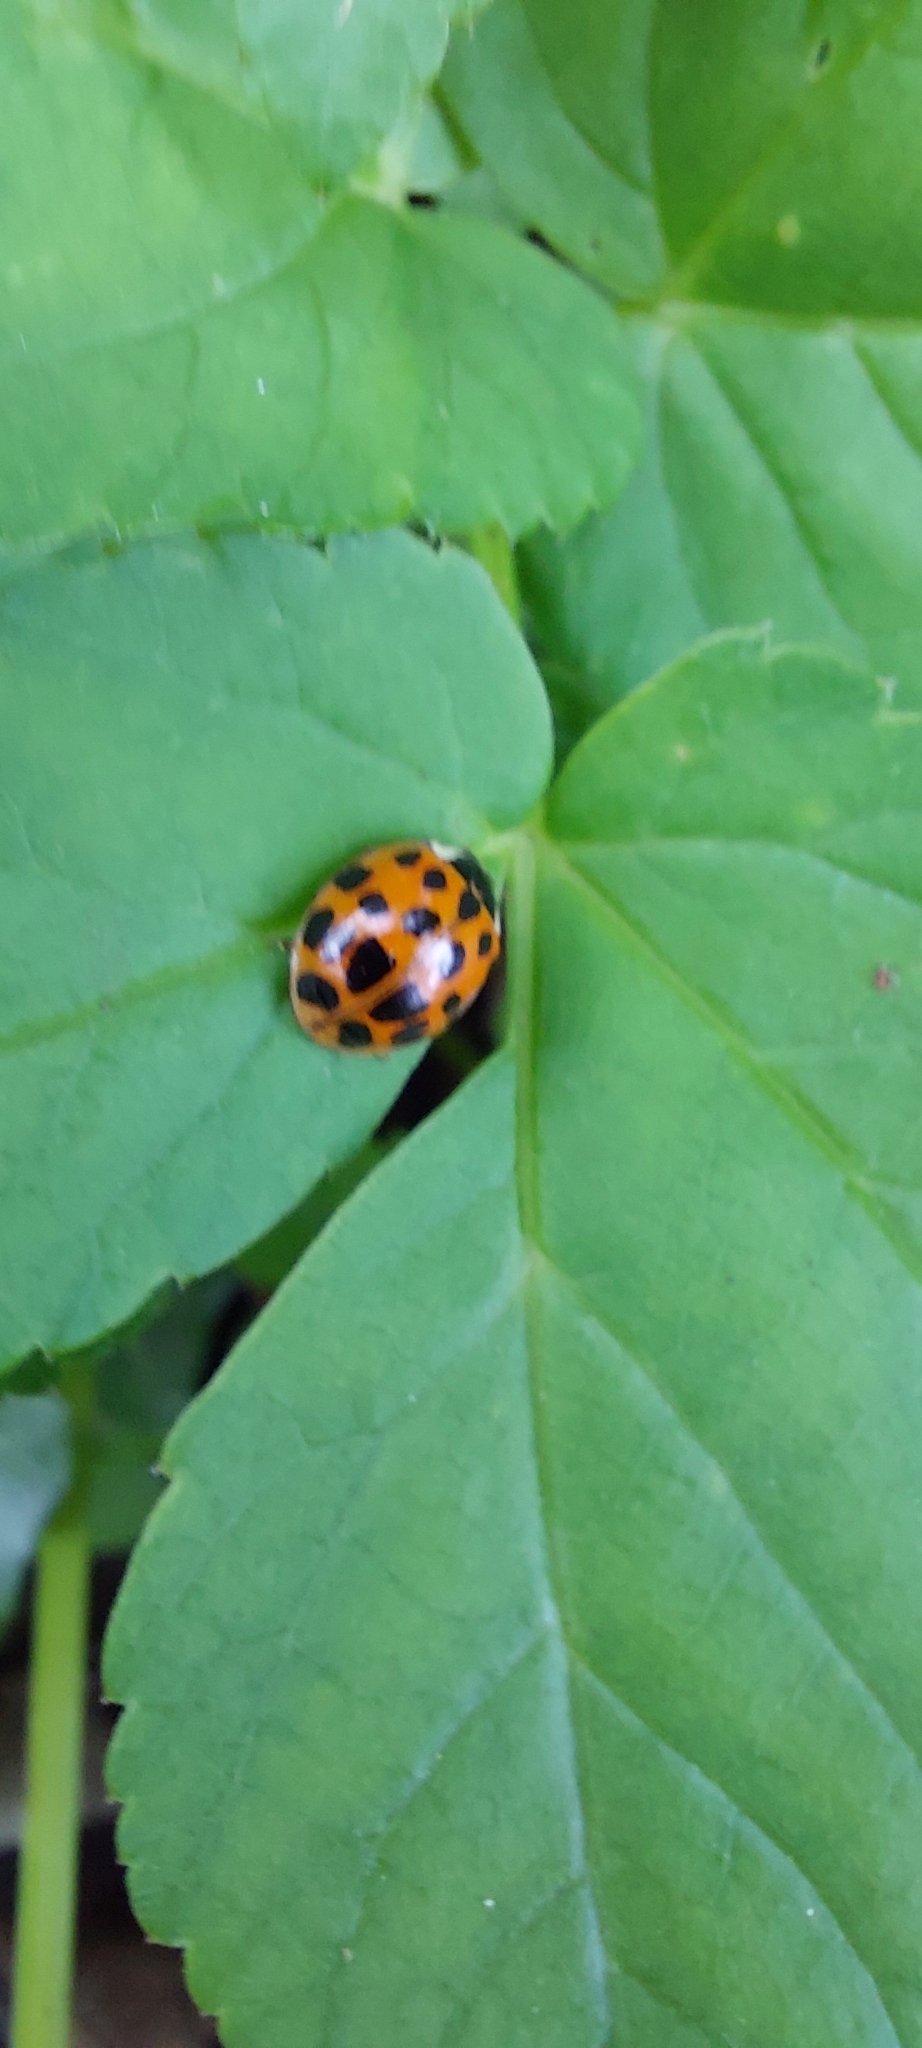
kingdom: Animalia
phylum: Arthropoda
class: Insecta
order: Coleoptera
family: Coccinellidae
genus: Harmonia
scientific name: Harmonia axyridis
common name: Harlequin ladybird
